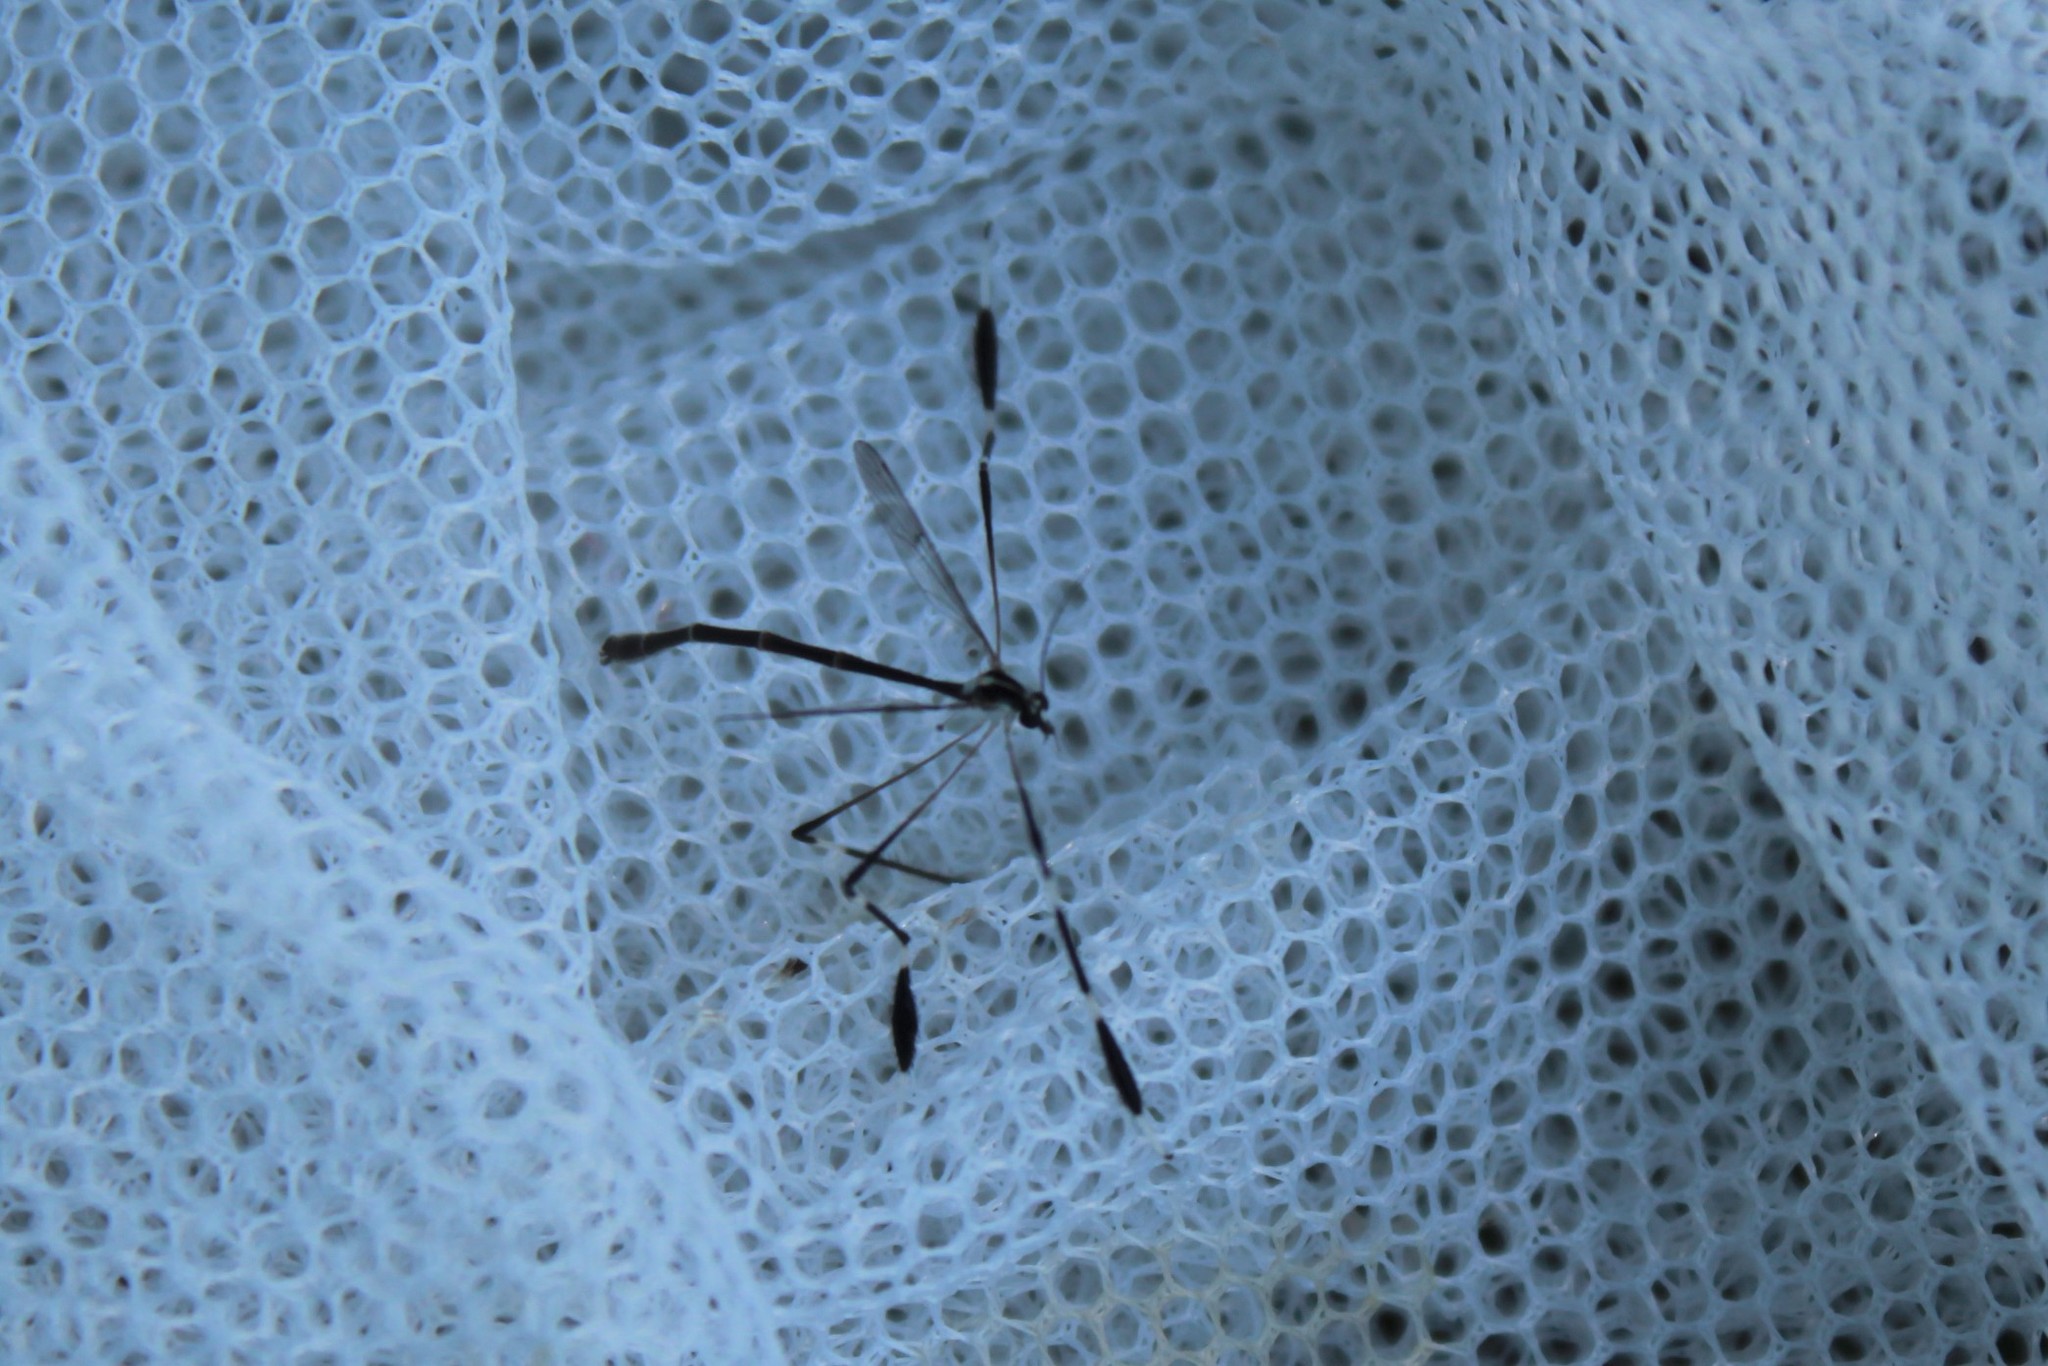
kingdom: Animalia
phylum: Arthropoda
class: Insecta
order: Diptera
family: Ptychopteridae
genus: Bittacomorpha
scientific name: Bittacomorpha clavipes
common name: Eastern phantom crane fly
